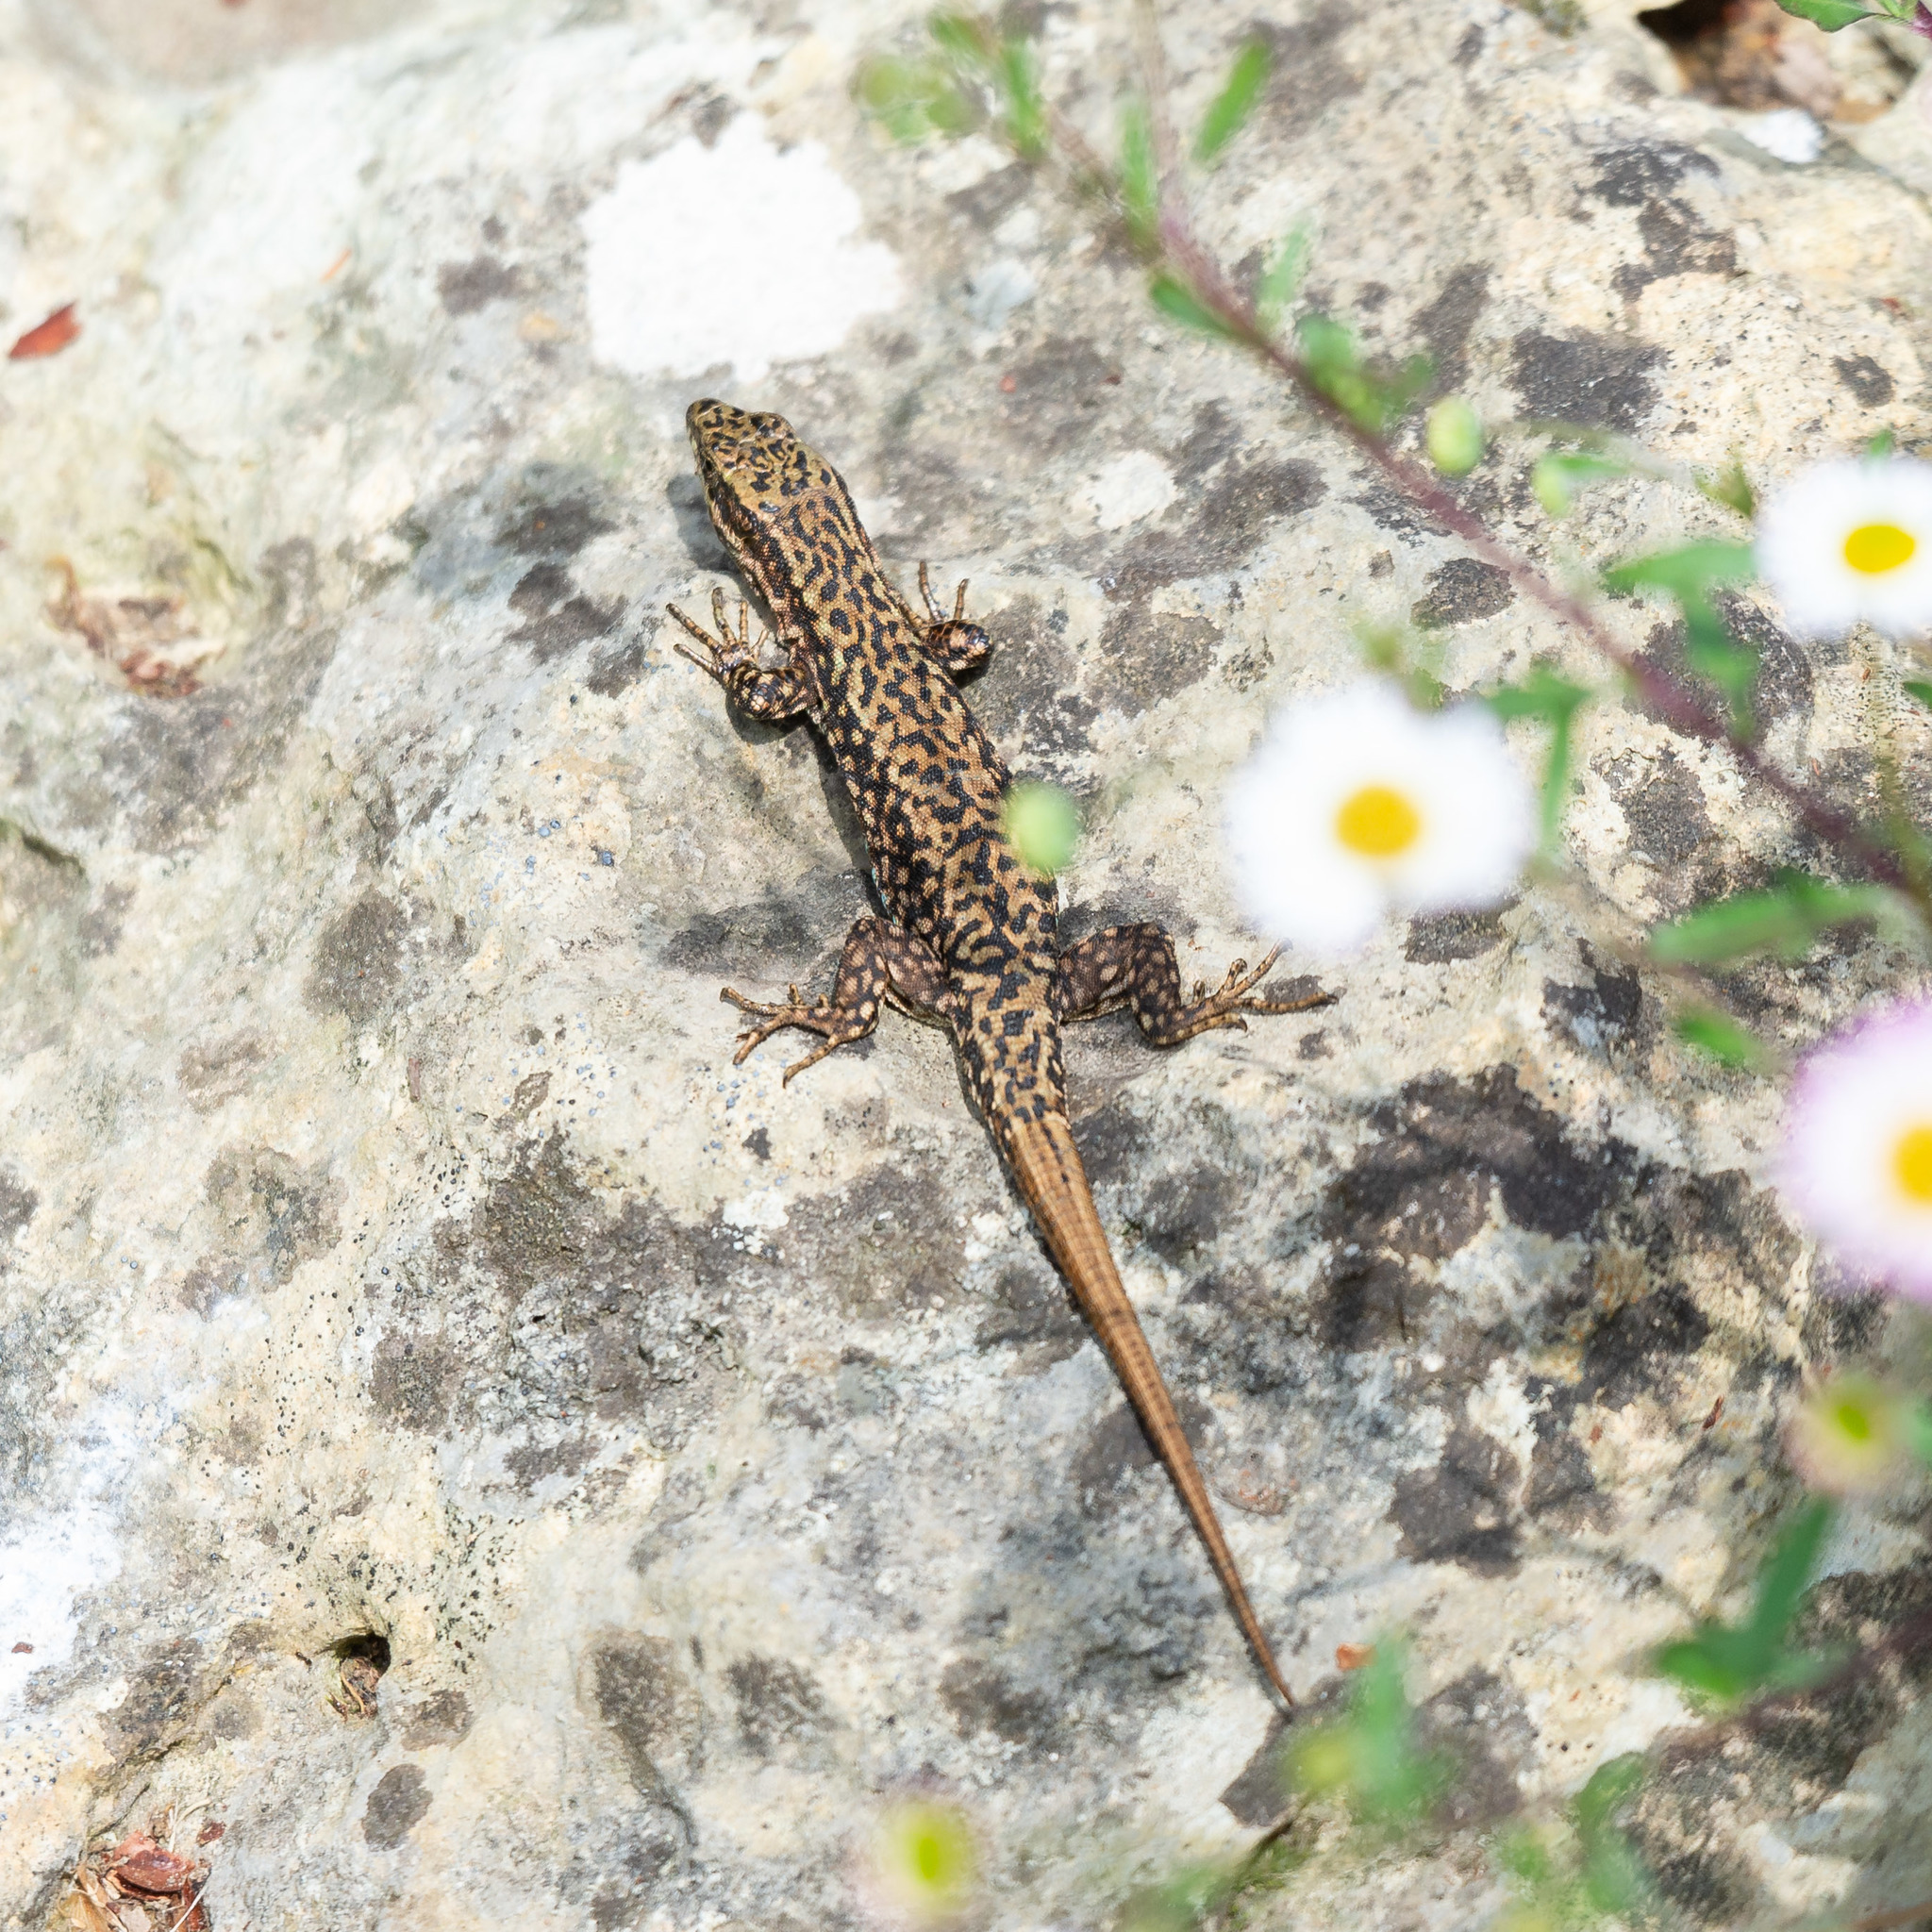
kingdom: Animalia
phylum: Chordata
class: Squamata
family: Lacertidae
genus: Podarcis
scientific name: Podarcis muralis
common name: Common wall lizard
